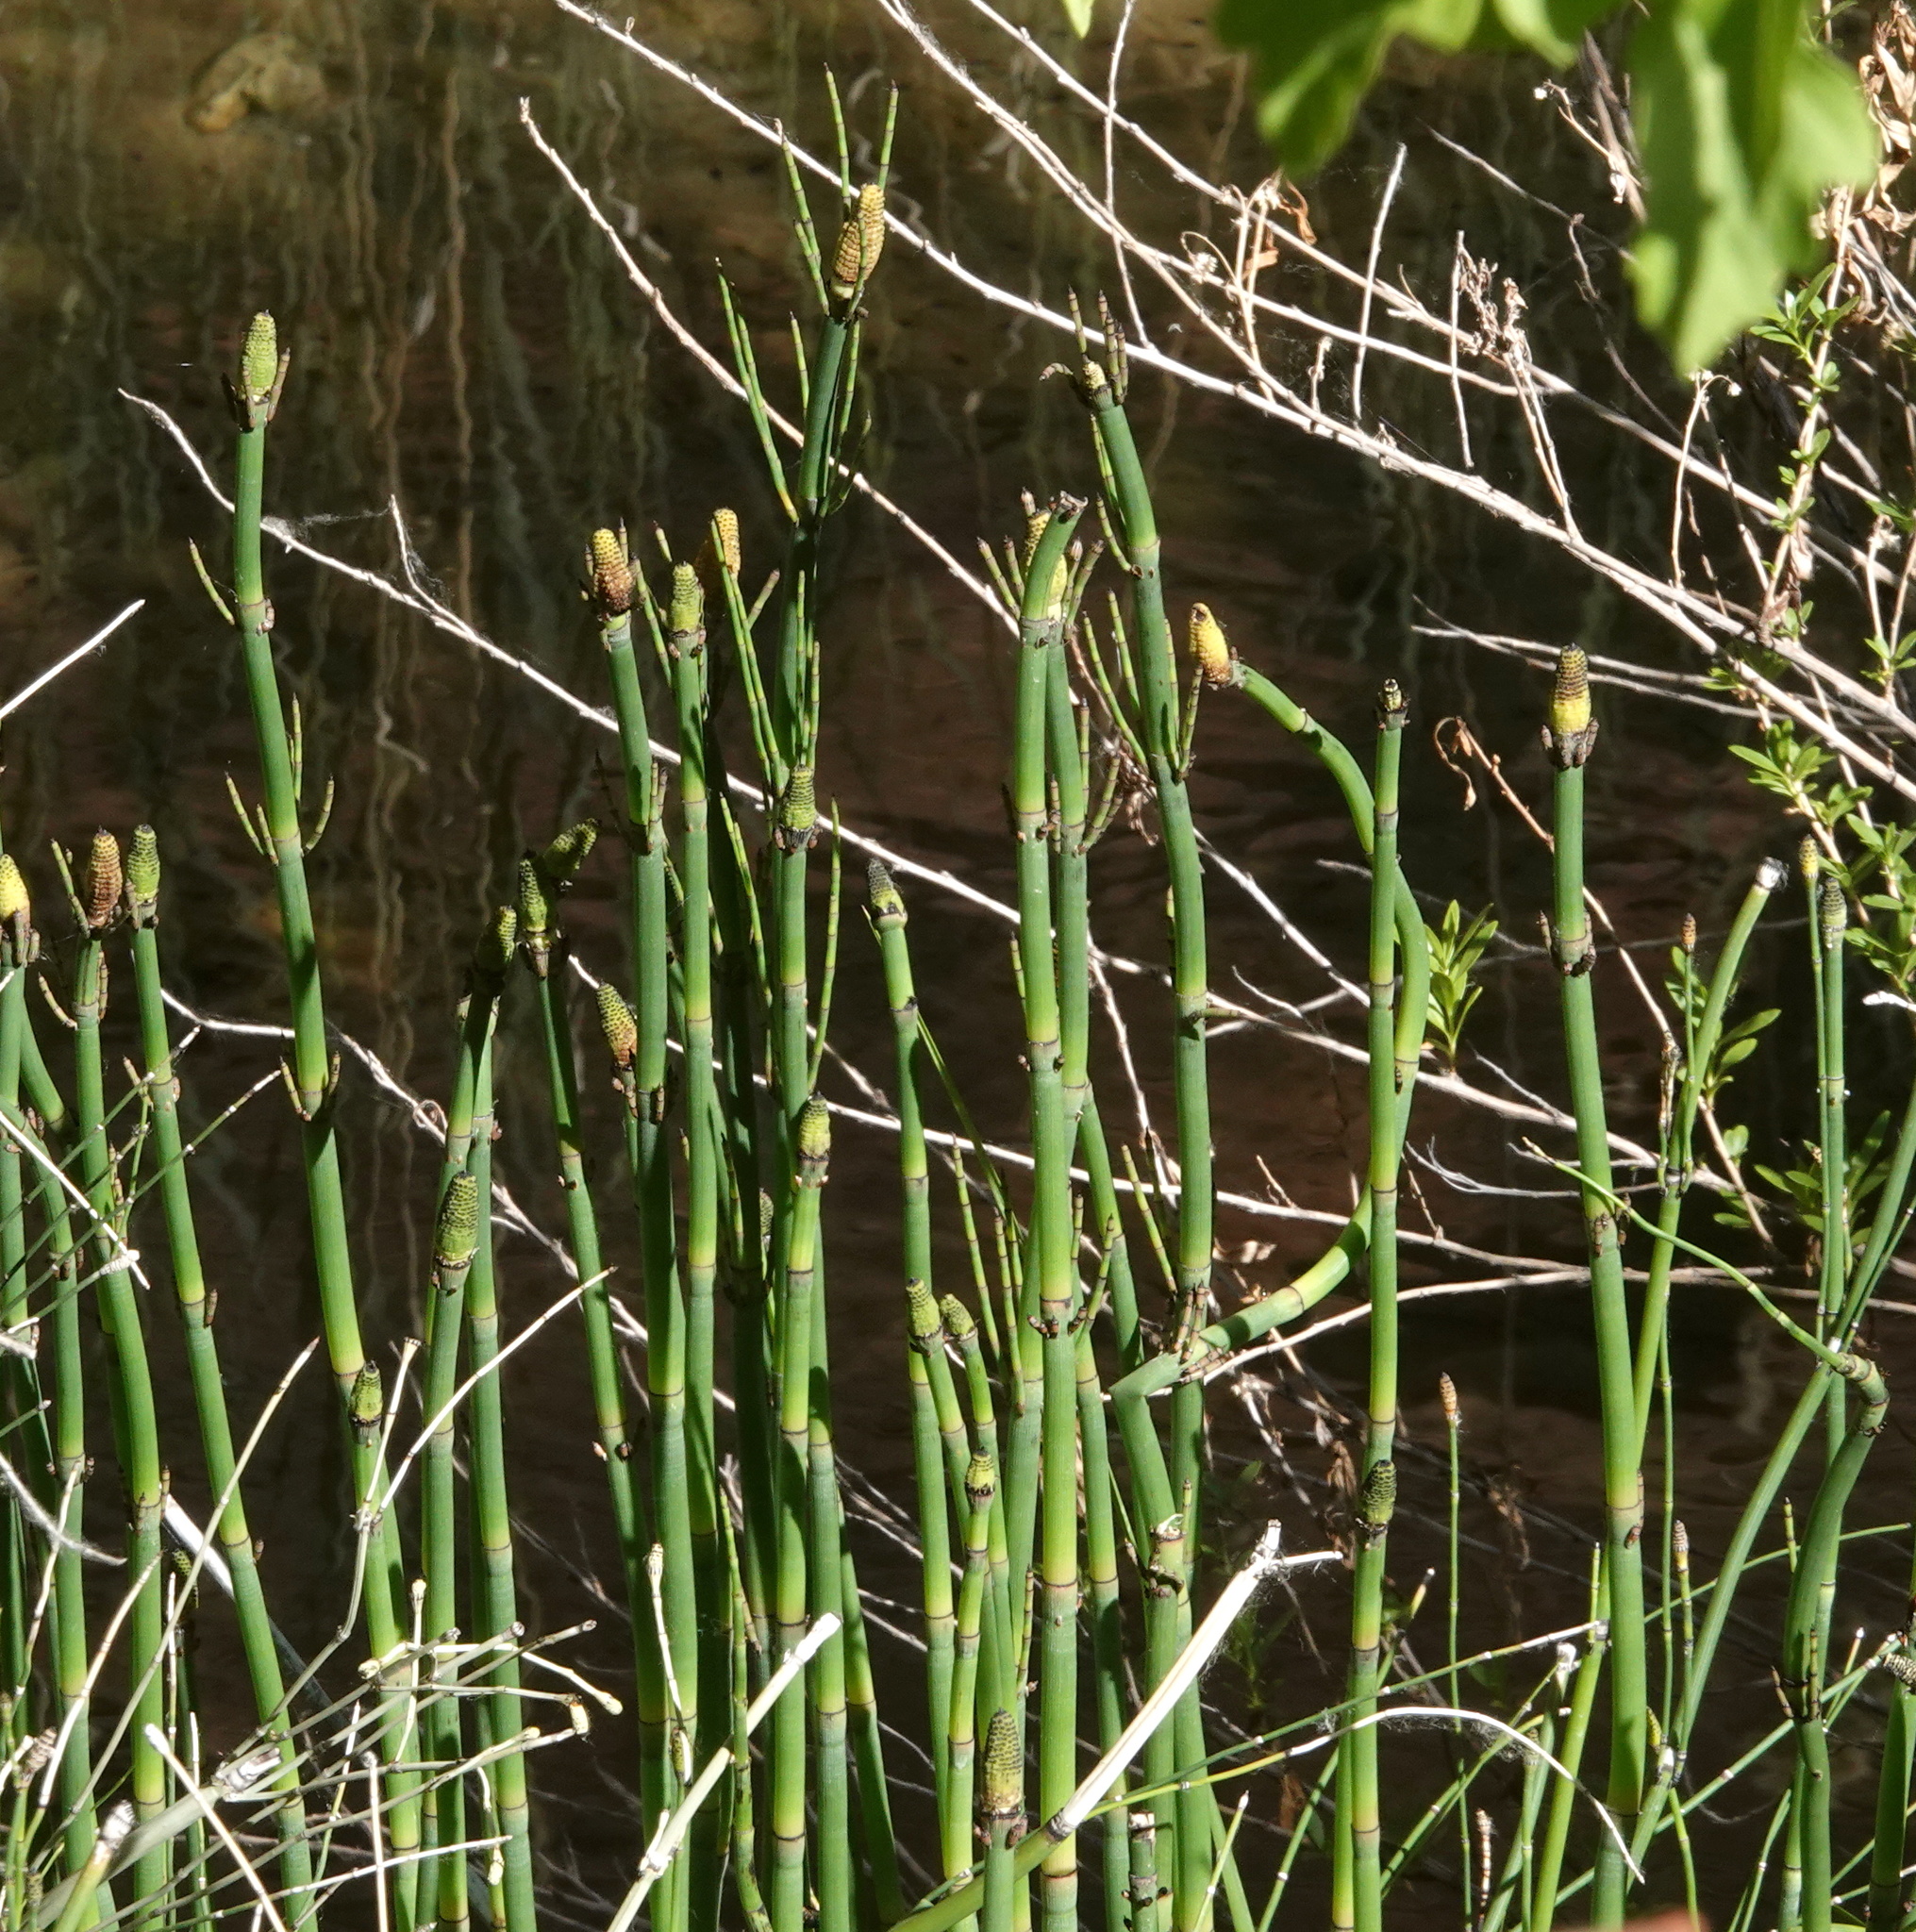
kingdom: Plantae
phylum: Tracheophyta
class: Polypodiopsida
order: Equisetales
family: Equisetaceae
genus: Equisetum
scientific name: Equisetum hyemale
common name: Rough horsetail
